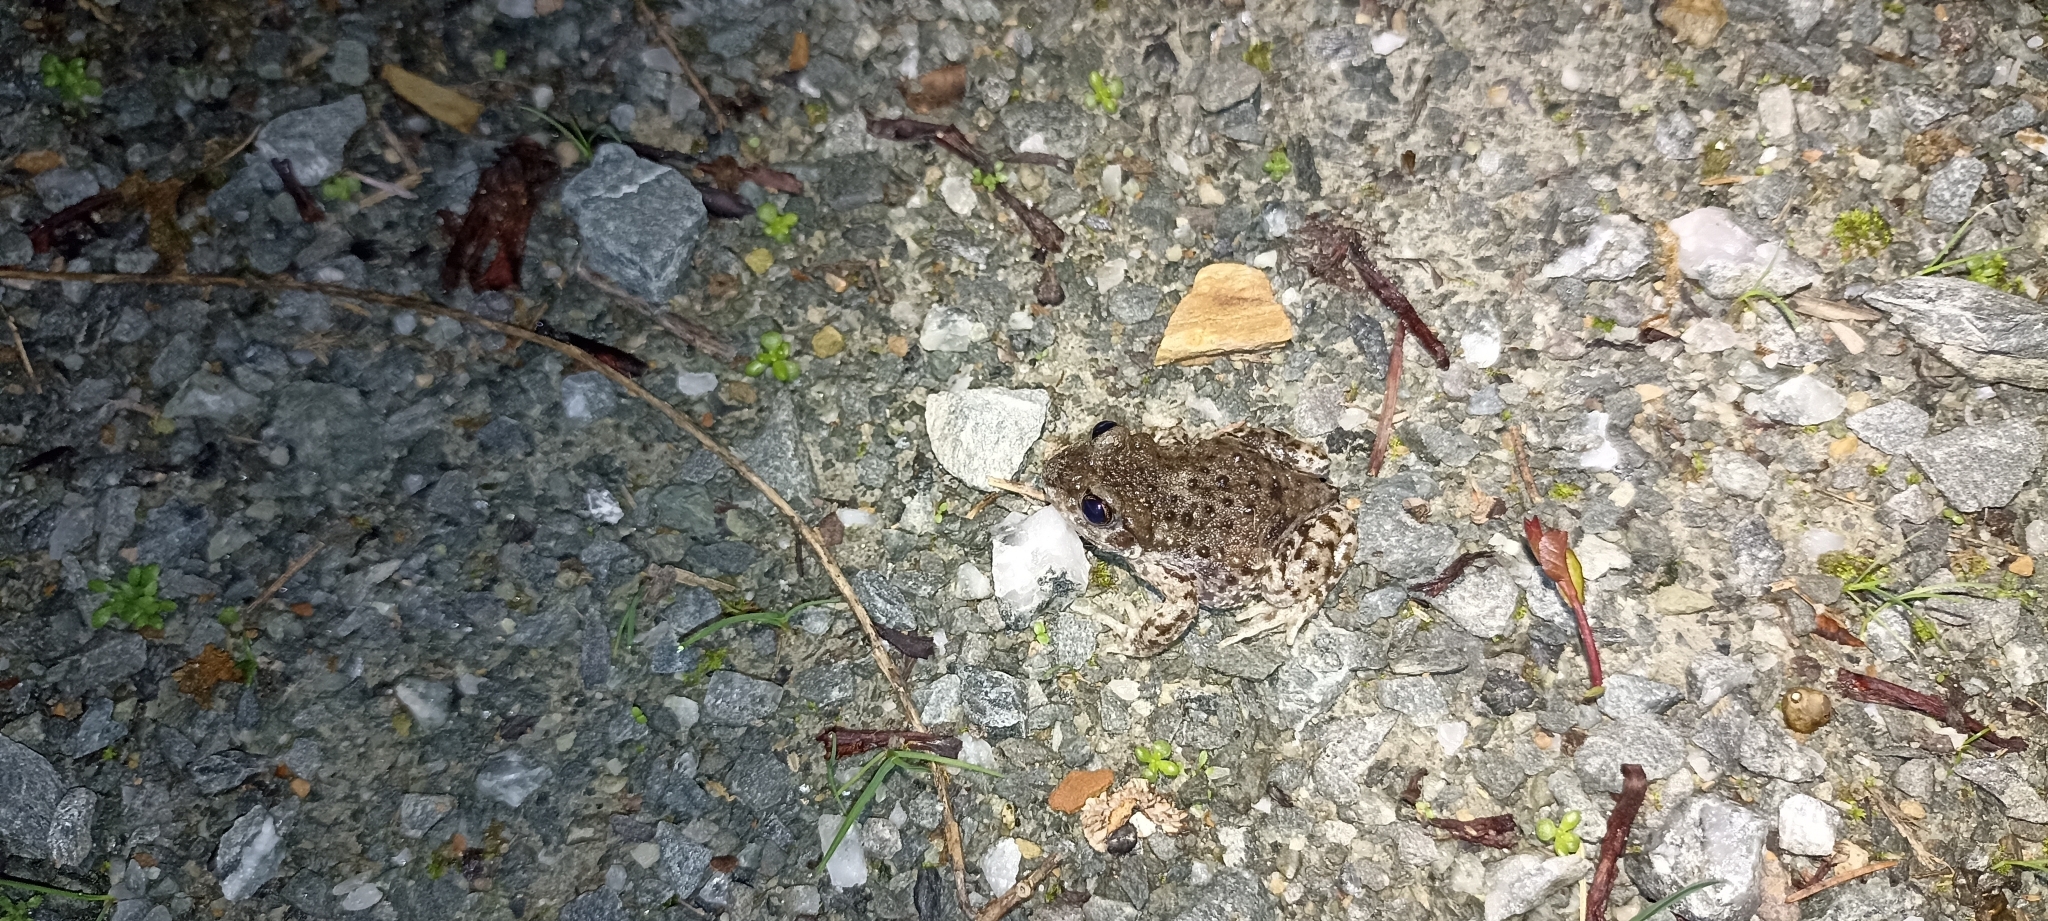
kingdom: Animalia
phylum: Chordata
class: Amphibia
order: Anura
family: Alytidae
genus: Alytes
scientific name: Alytes obstetricans
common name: Midwife toad
